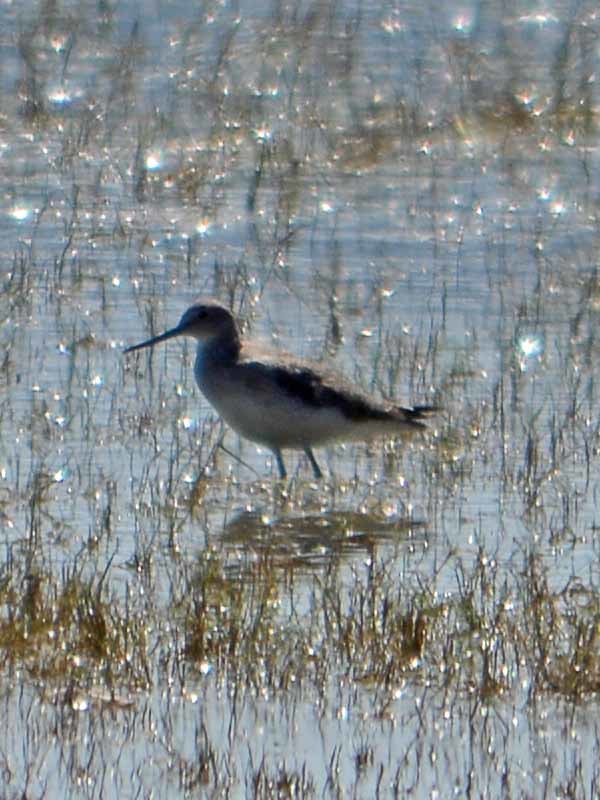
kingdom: Animalia
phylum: Chordata
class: Aves
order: Charadriiformes
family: Scolopacidae
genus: Tringa
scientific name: Tringa melanoleuca
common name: Greater yellowlegs
